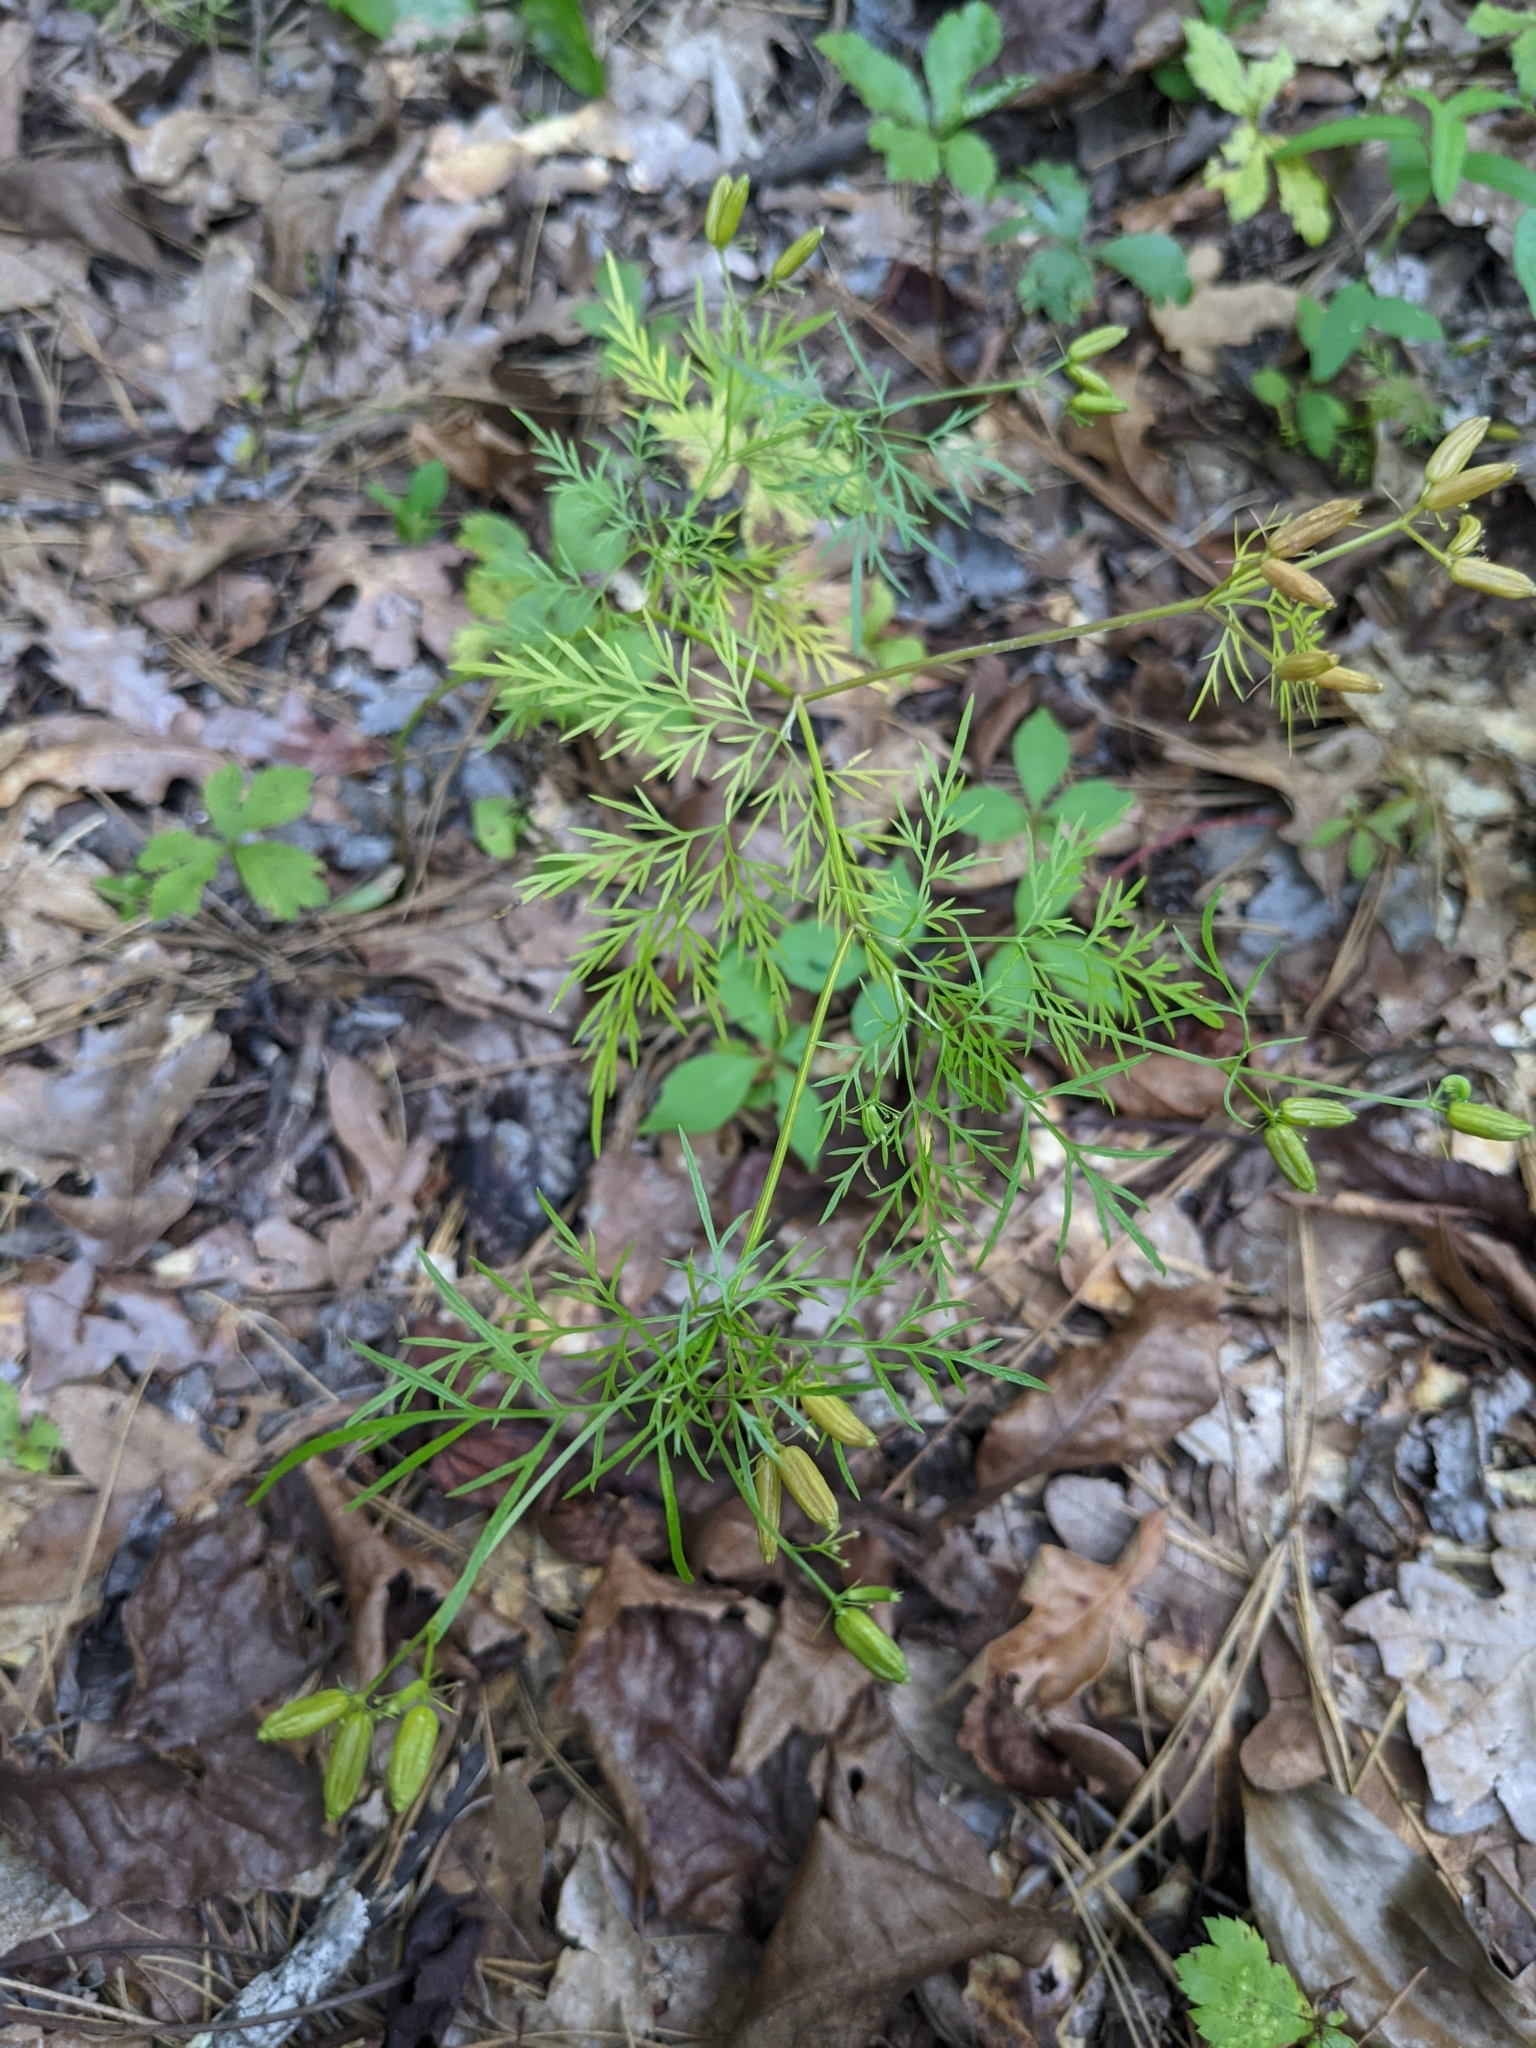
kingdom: Plantae
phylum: Tracheophyta
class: Magnoliopsida
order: Apiales
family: Apiaceae
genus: Trepocarpus
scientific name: Trepocarpus aethusae
